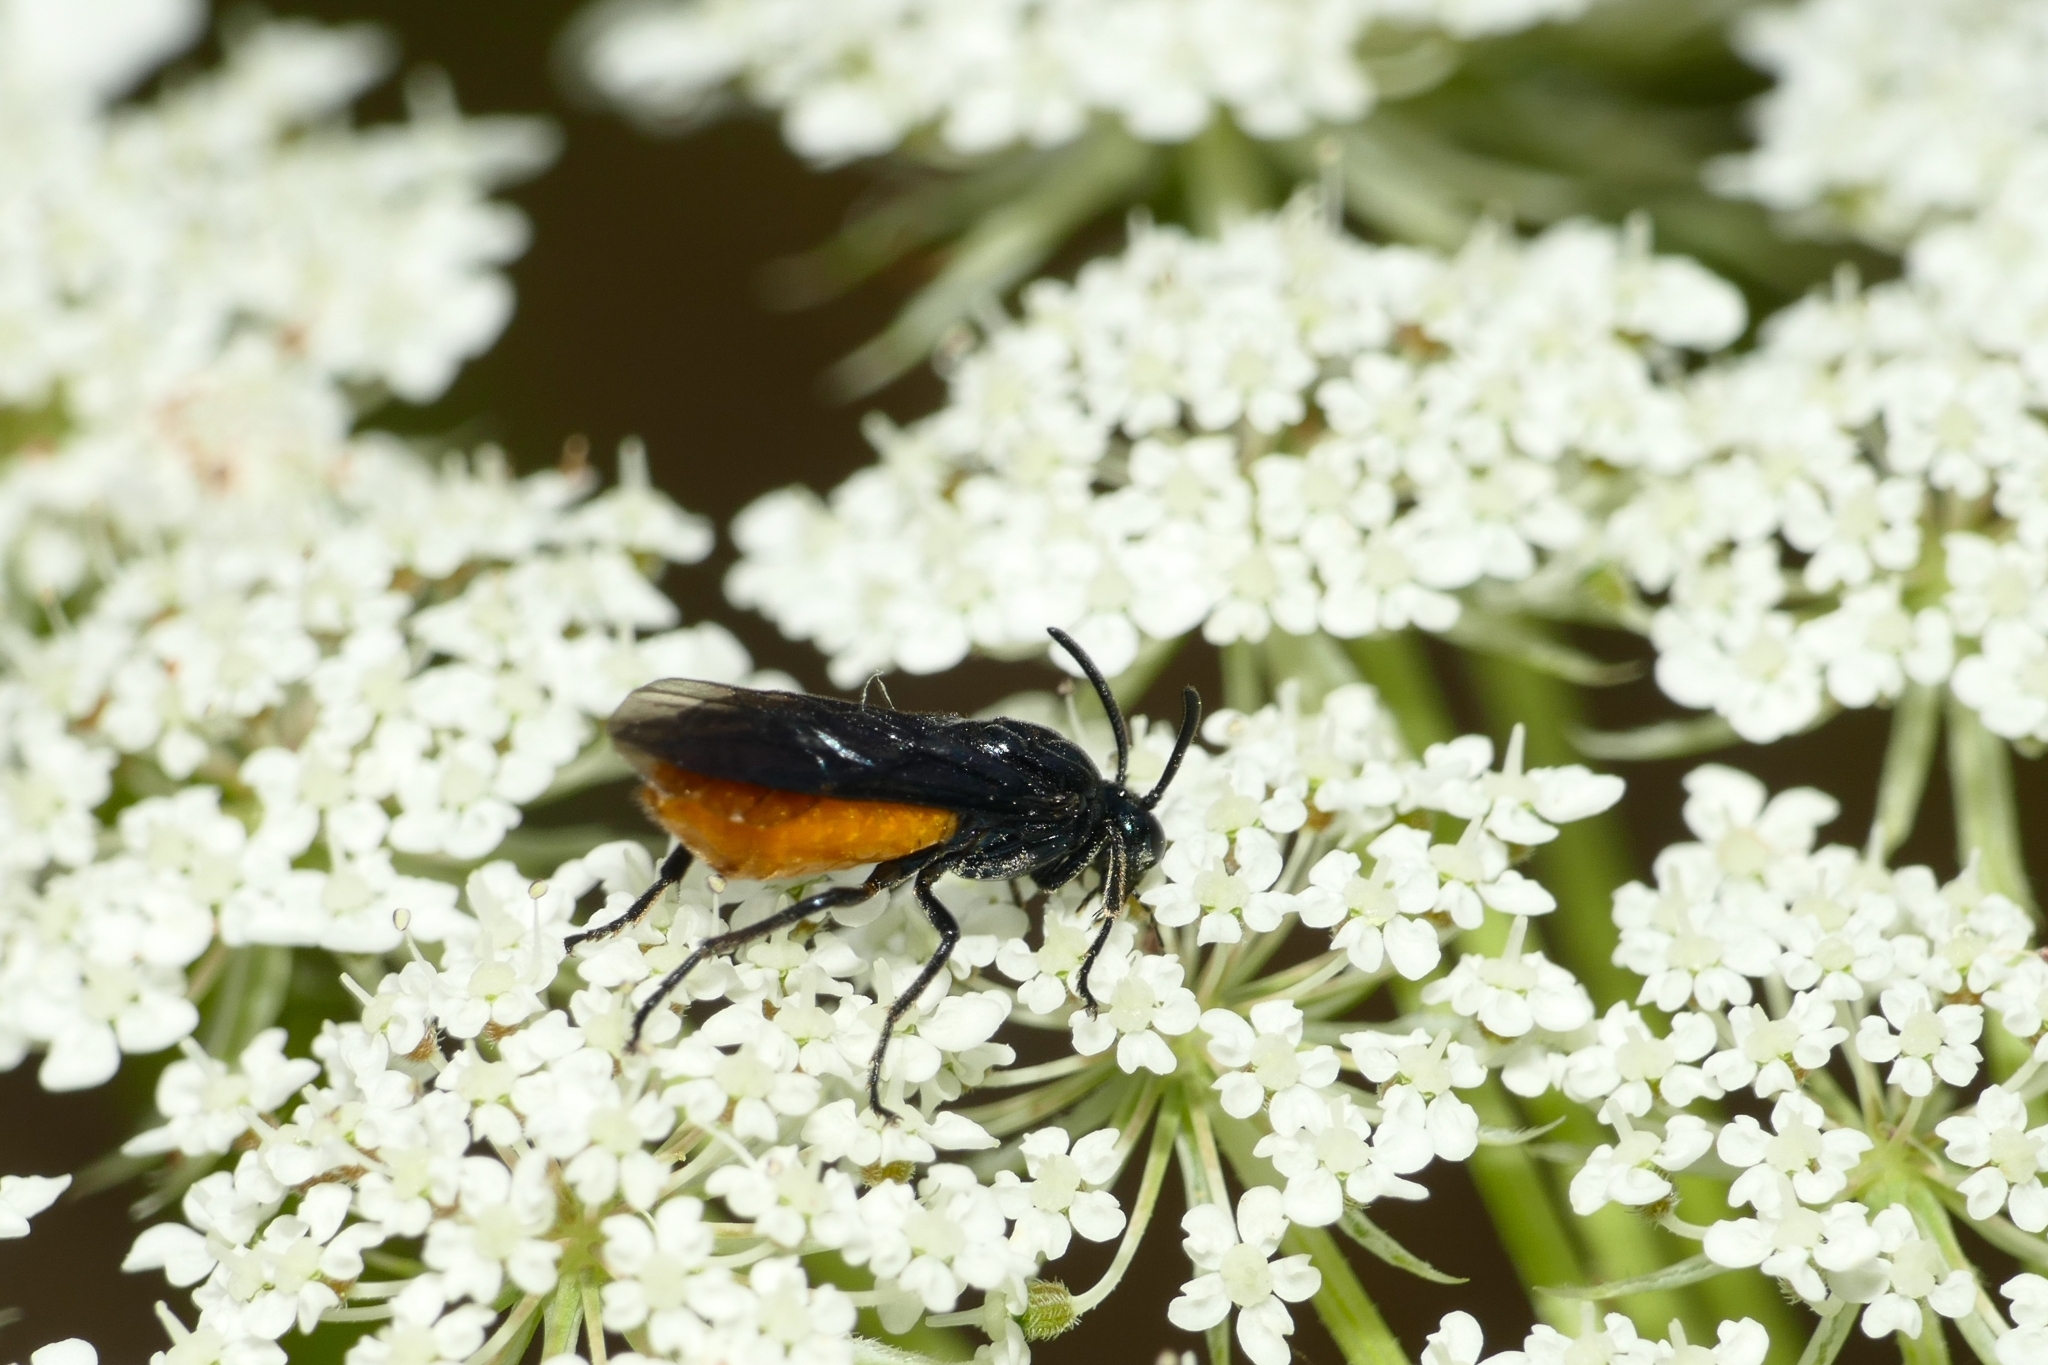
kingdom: Animalia
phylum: Arthropoda
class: Insecta
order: Hymenoptera
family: Argidae
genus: Arge
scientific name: Arge pagana
